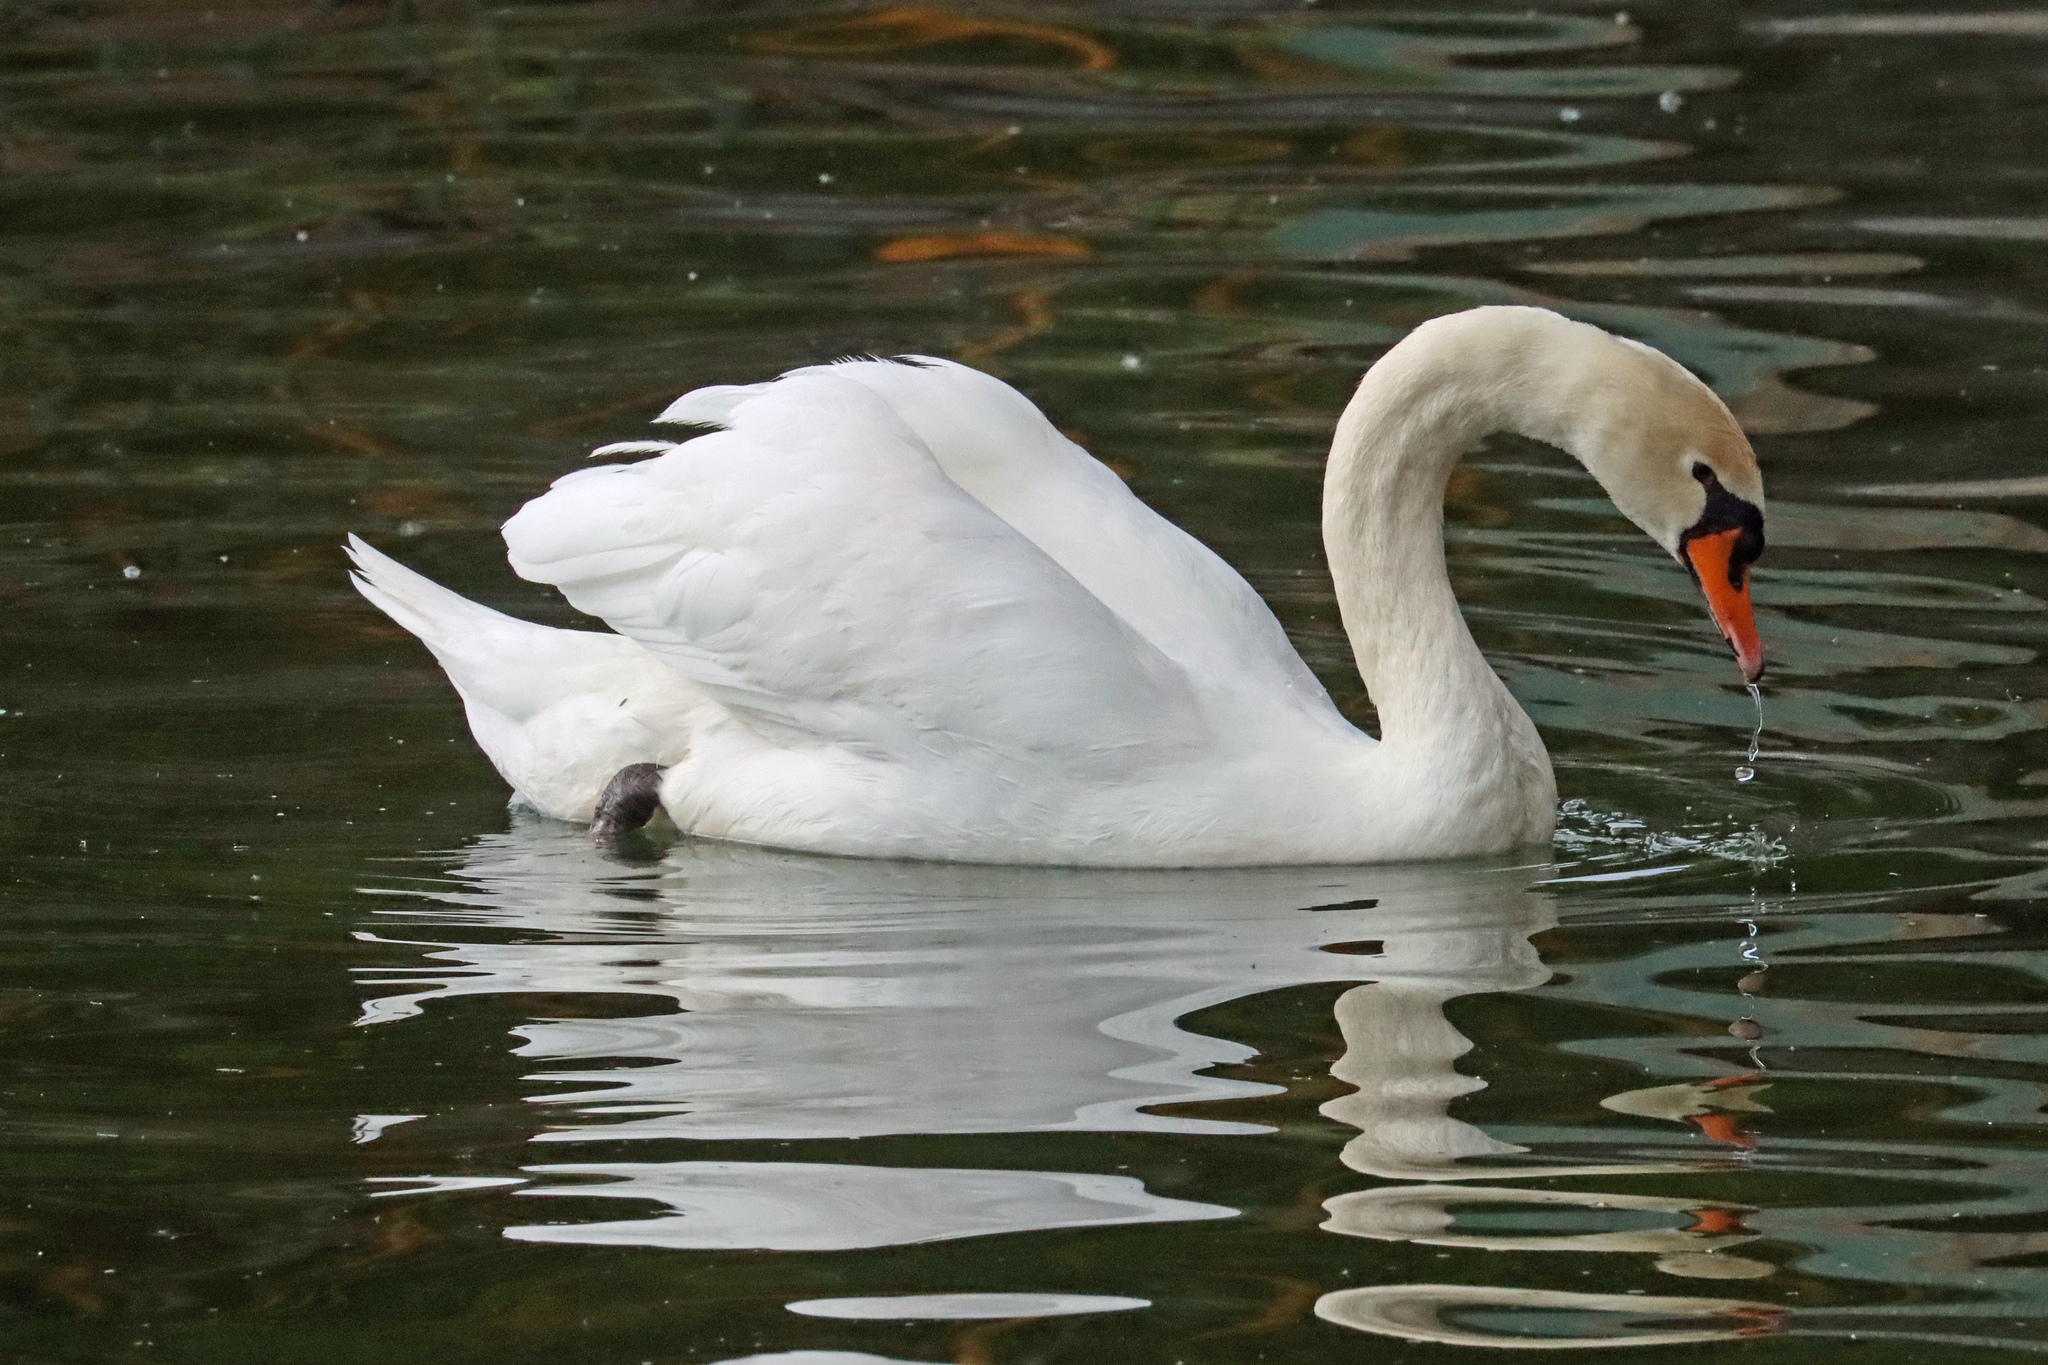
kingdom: Animalia
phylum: Chordata
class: Aves
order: Anseriformes
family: Anatidae
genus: Cygnus
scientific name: Cygnus olor
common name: Mute swan
